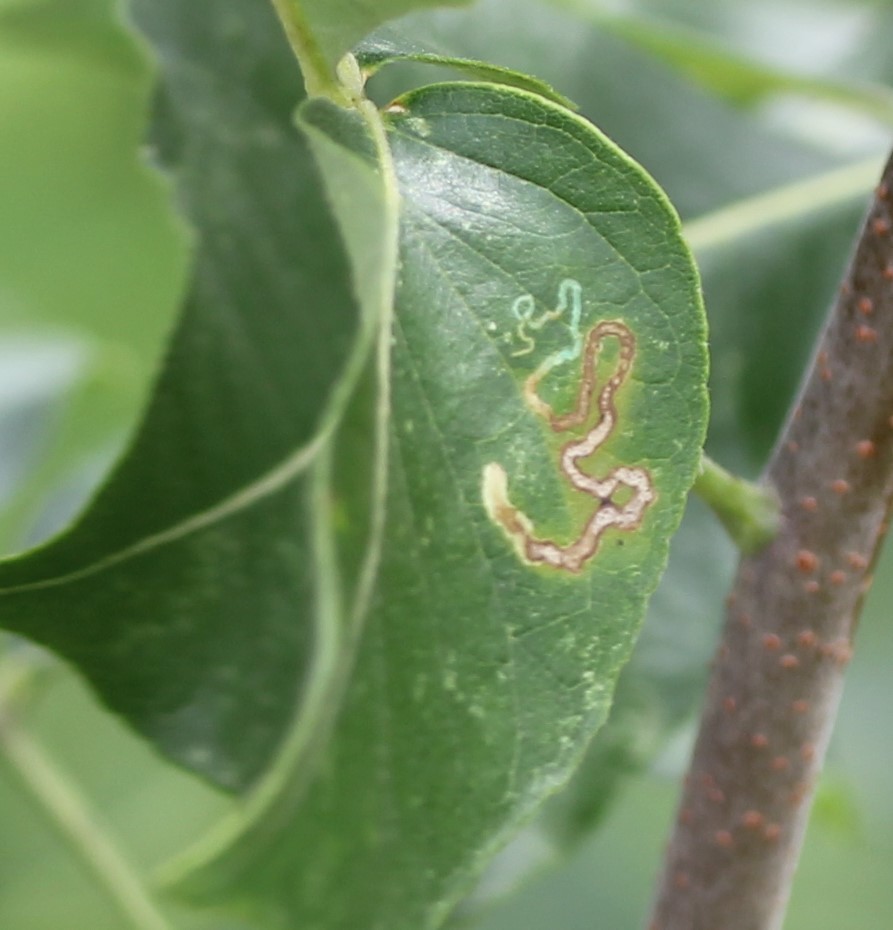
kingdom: Animalia
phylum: Arthropoda
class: Insecta
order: Lepidoptera
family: Nepticulidae
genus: Fomoria
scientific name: Fomoria pteliaeella
